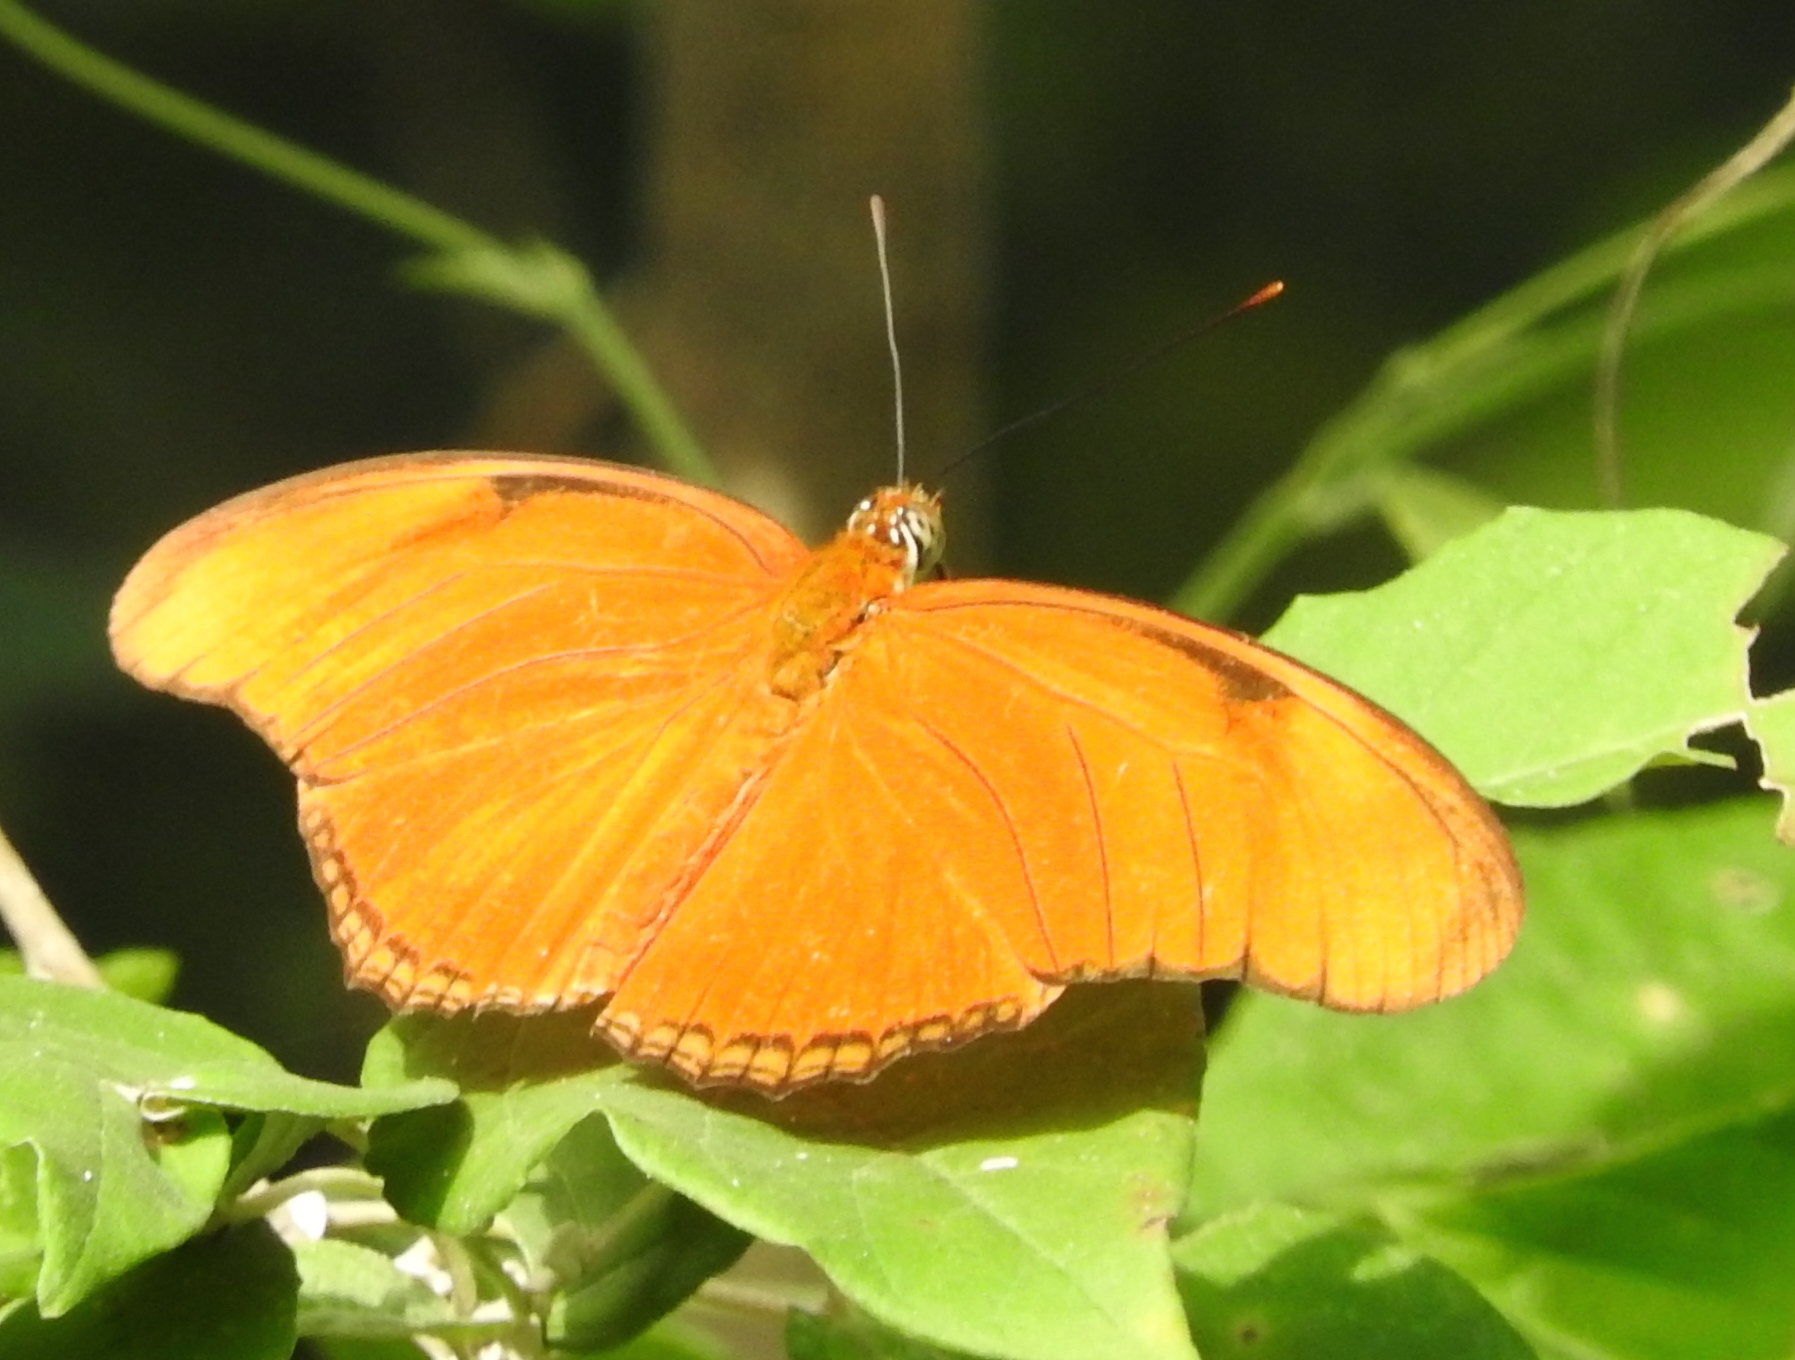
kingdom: Animalia
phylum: Arthropoda
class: Insecta
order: Lepidoptera
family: Nymphalidae
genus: Dryas
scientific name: Dryas iulia
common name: Flambeau
